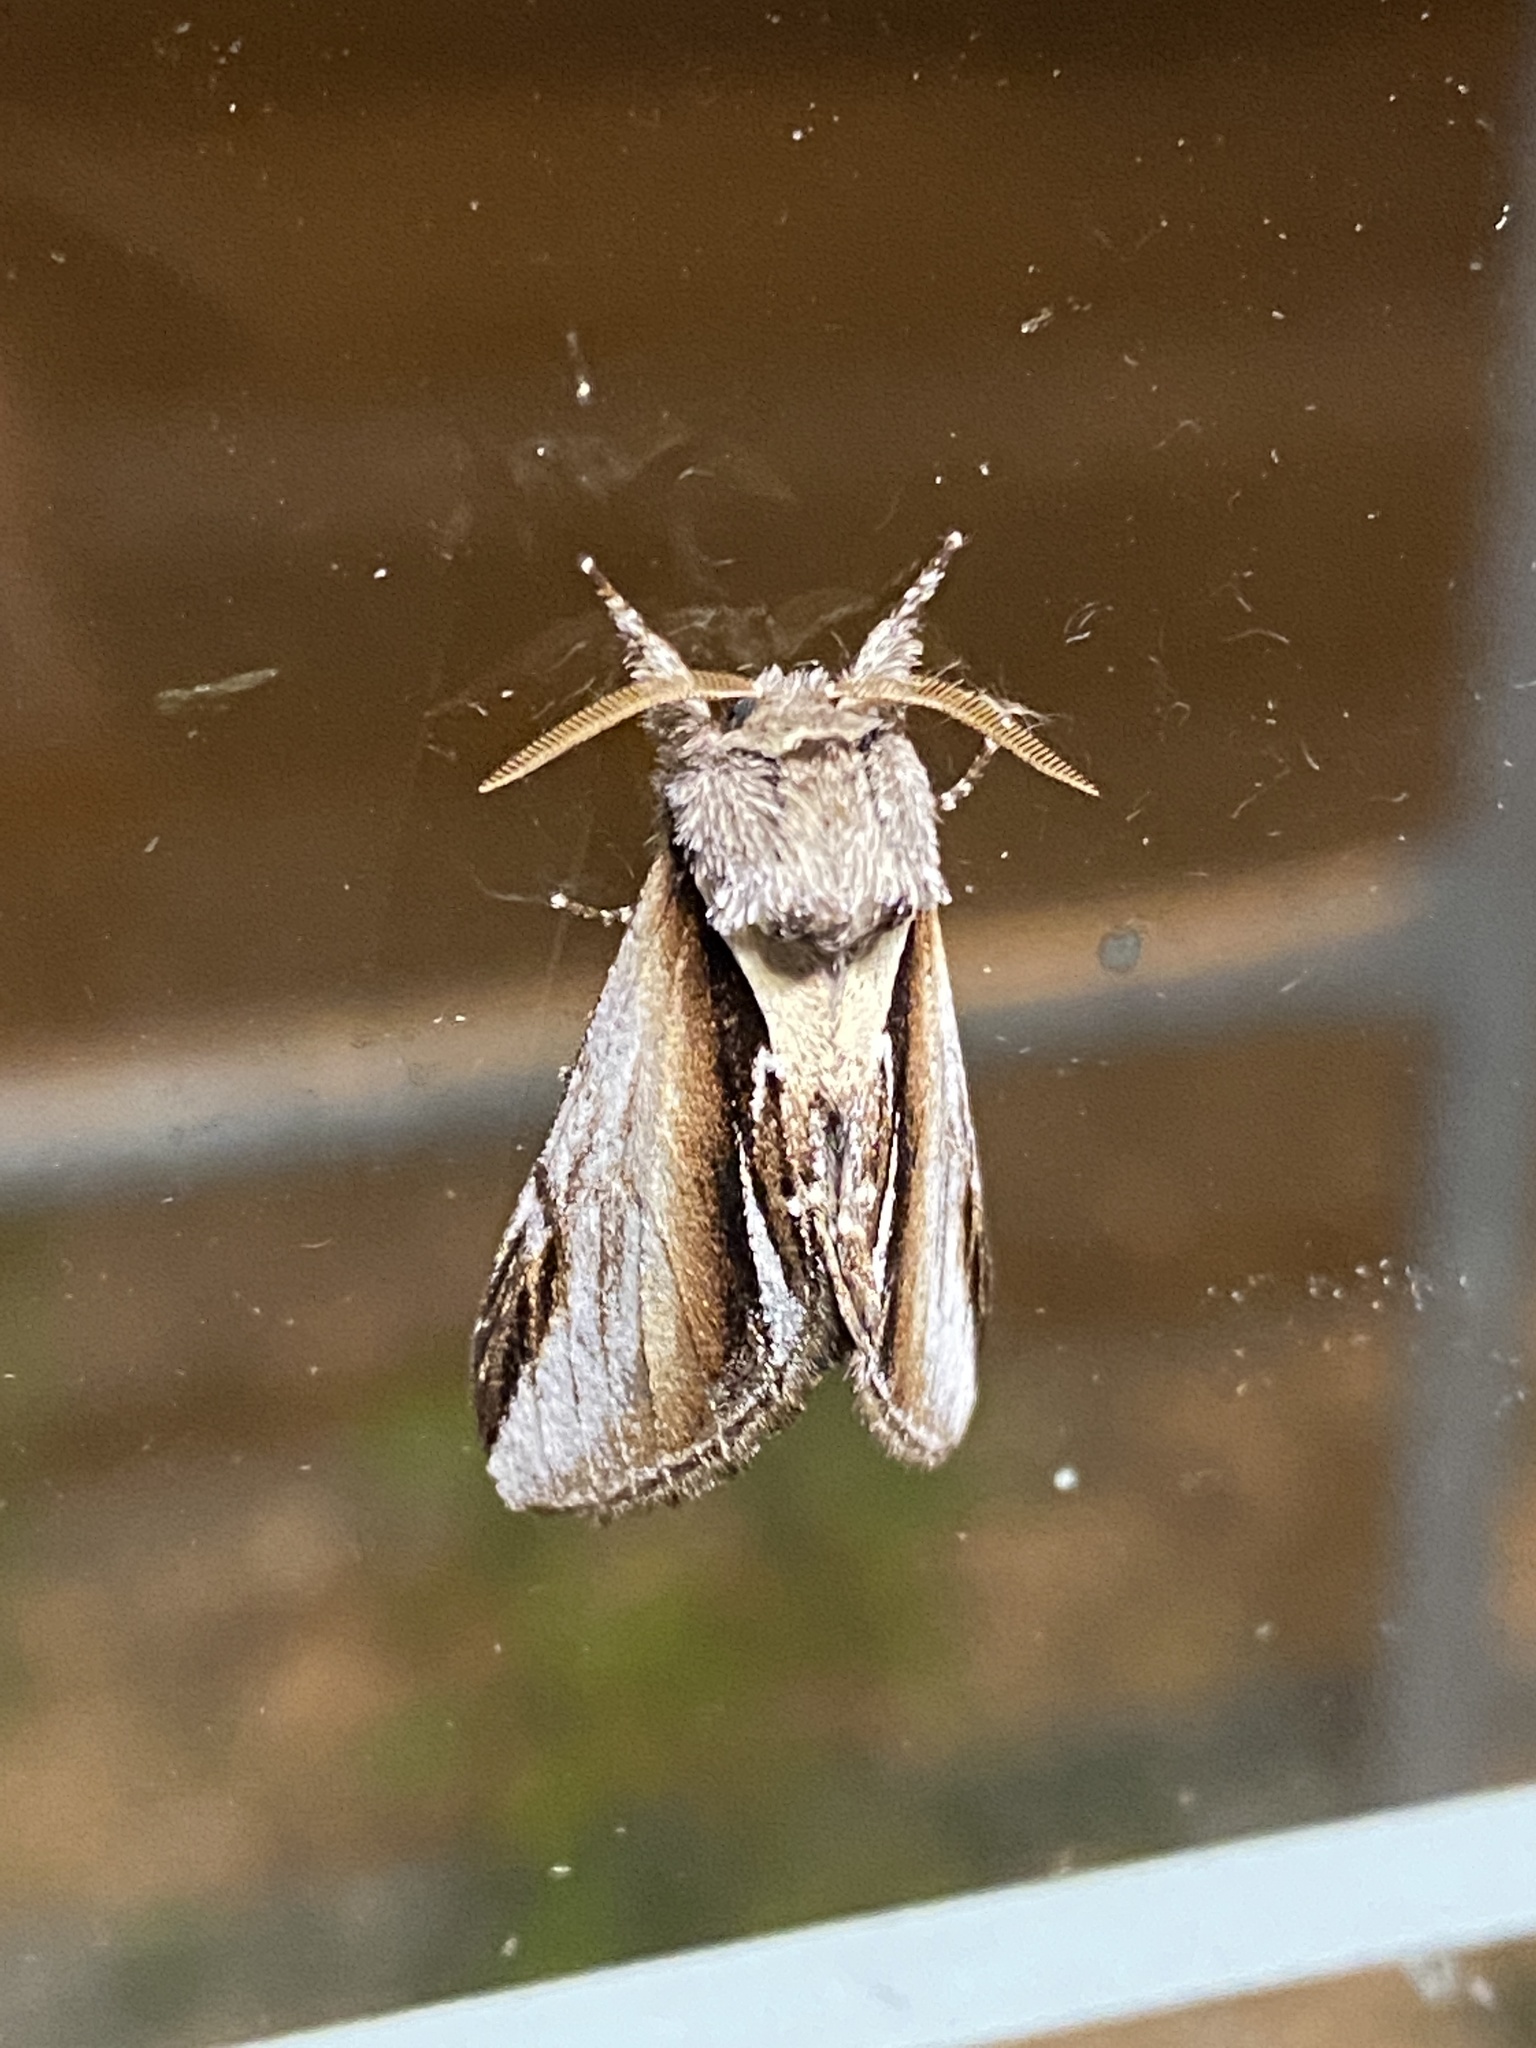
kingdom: Animalia
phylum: Arthropoda
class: Insecta
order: Lepidoptera
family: Notodontidae
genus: Pheosia
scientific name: Pheosia gnoma
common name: Lesser swallow prominent
